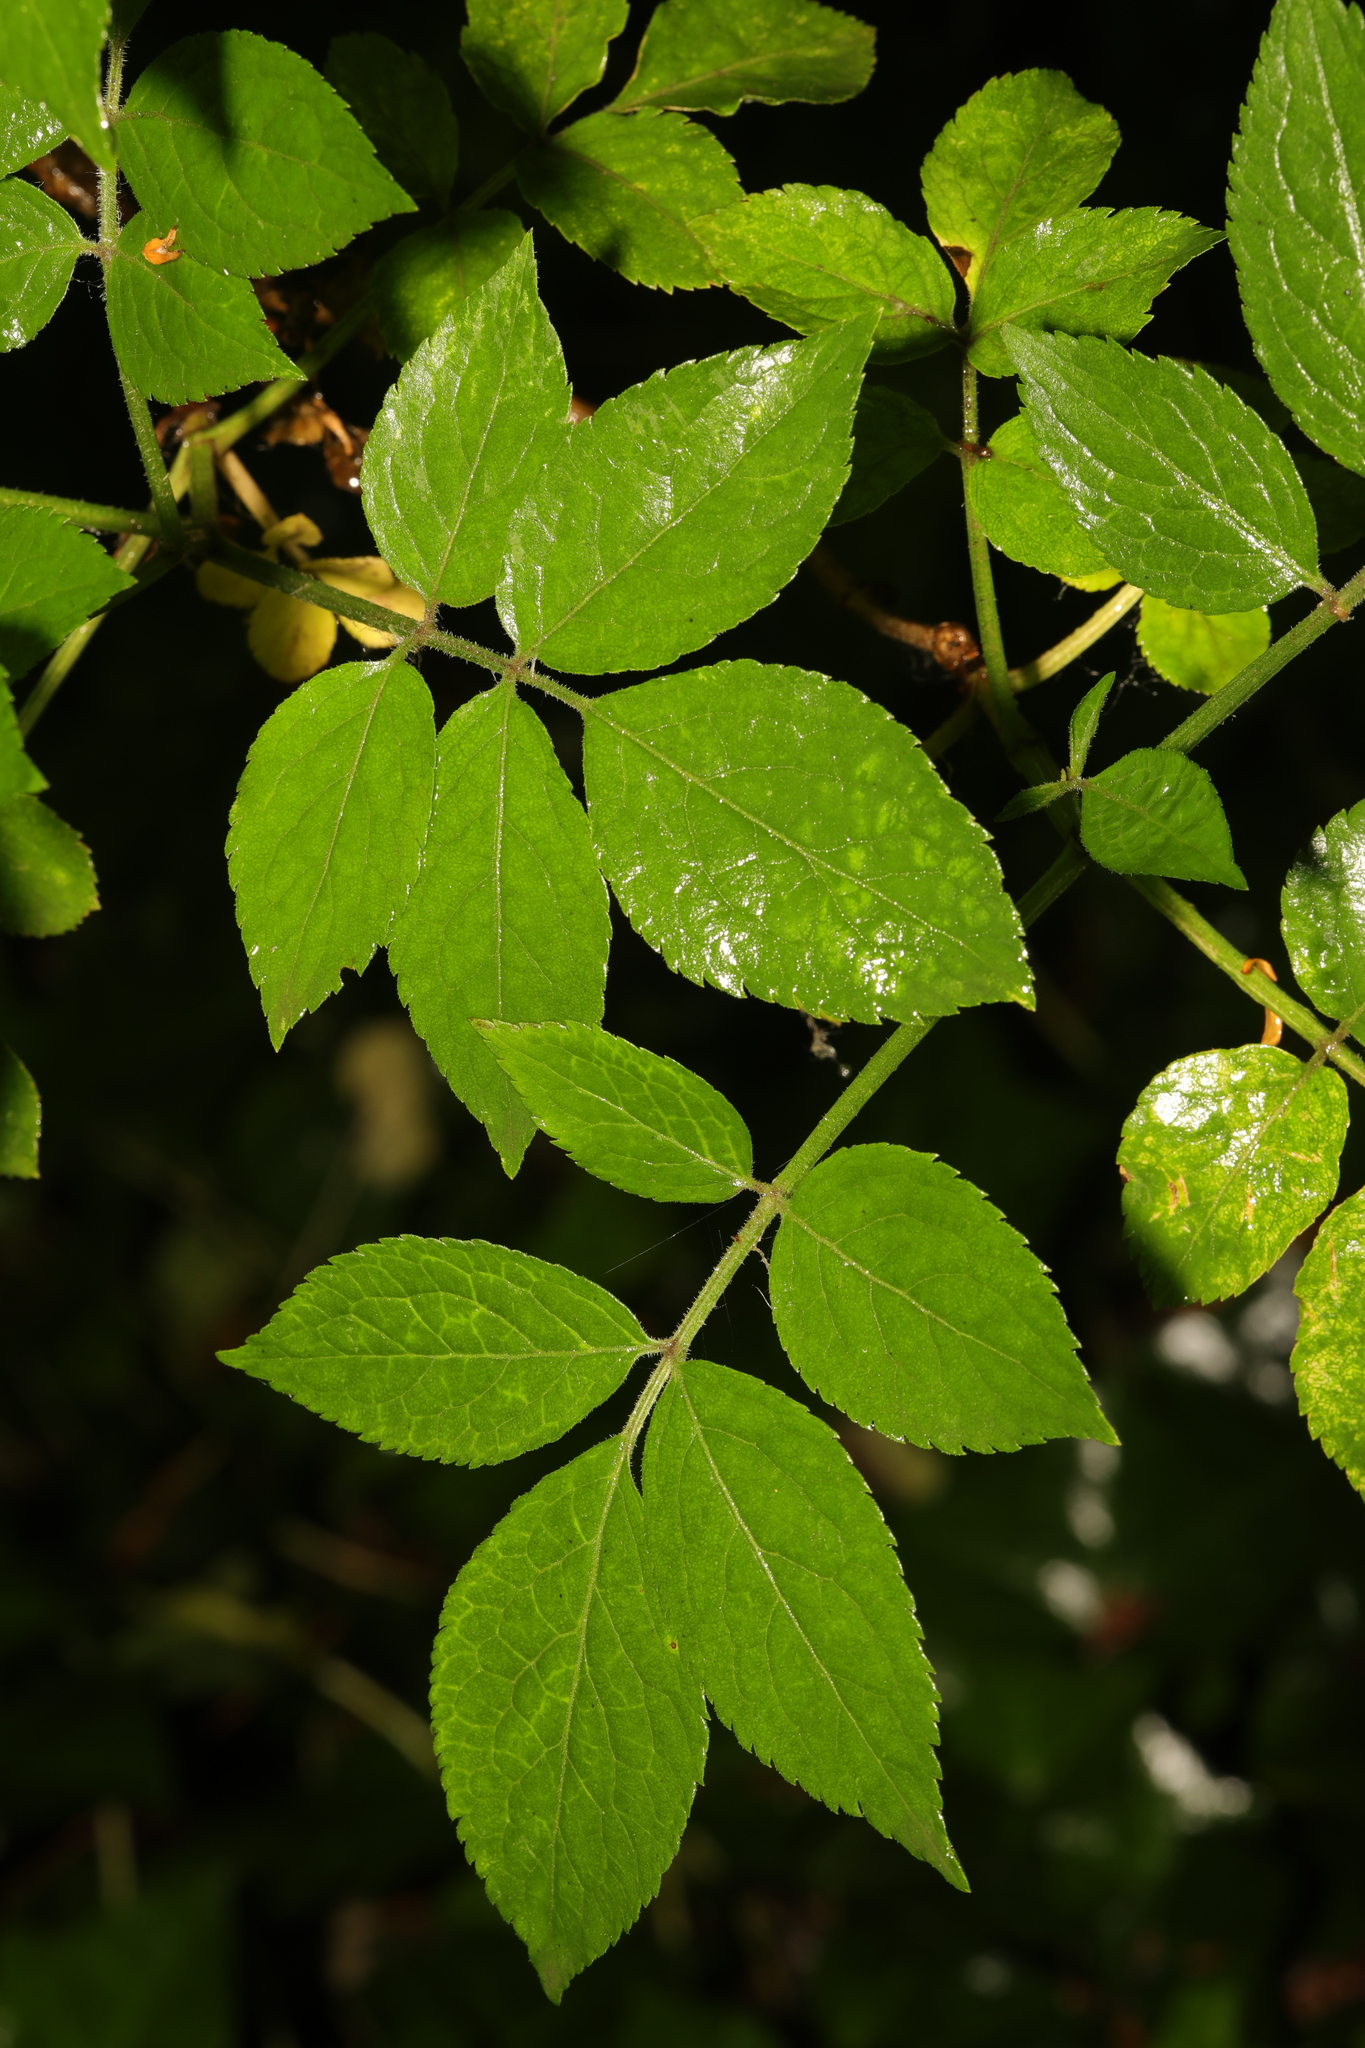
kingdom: Plantae
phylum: Tracheophyta
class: Magnoliopsida
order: Dipsacales
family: Viburnaceae
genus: Sambucus
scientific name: Sambucus nigra
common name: Elder
